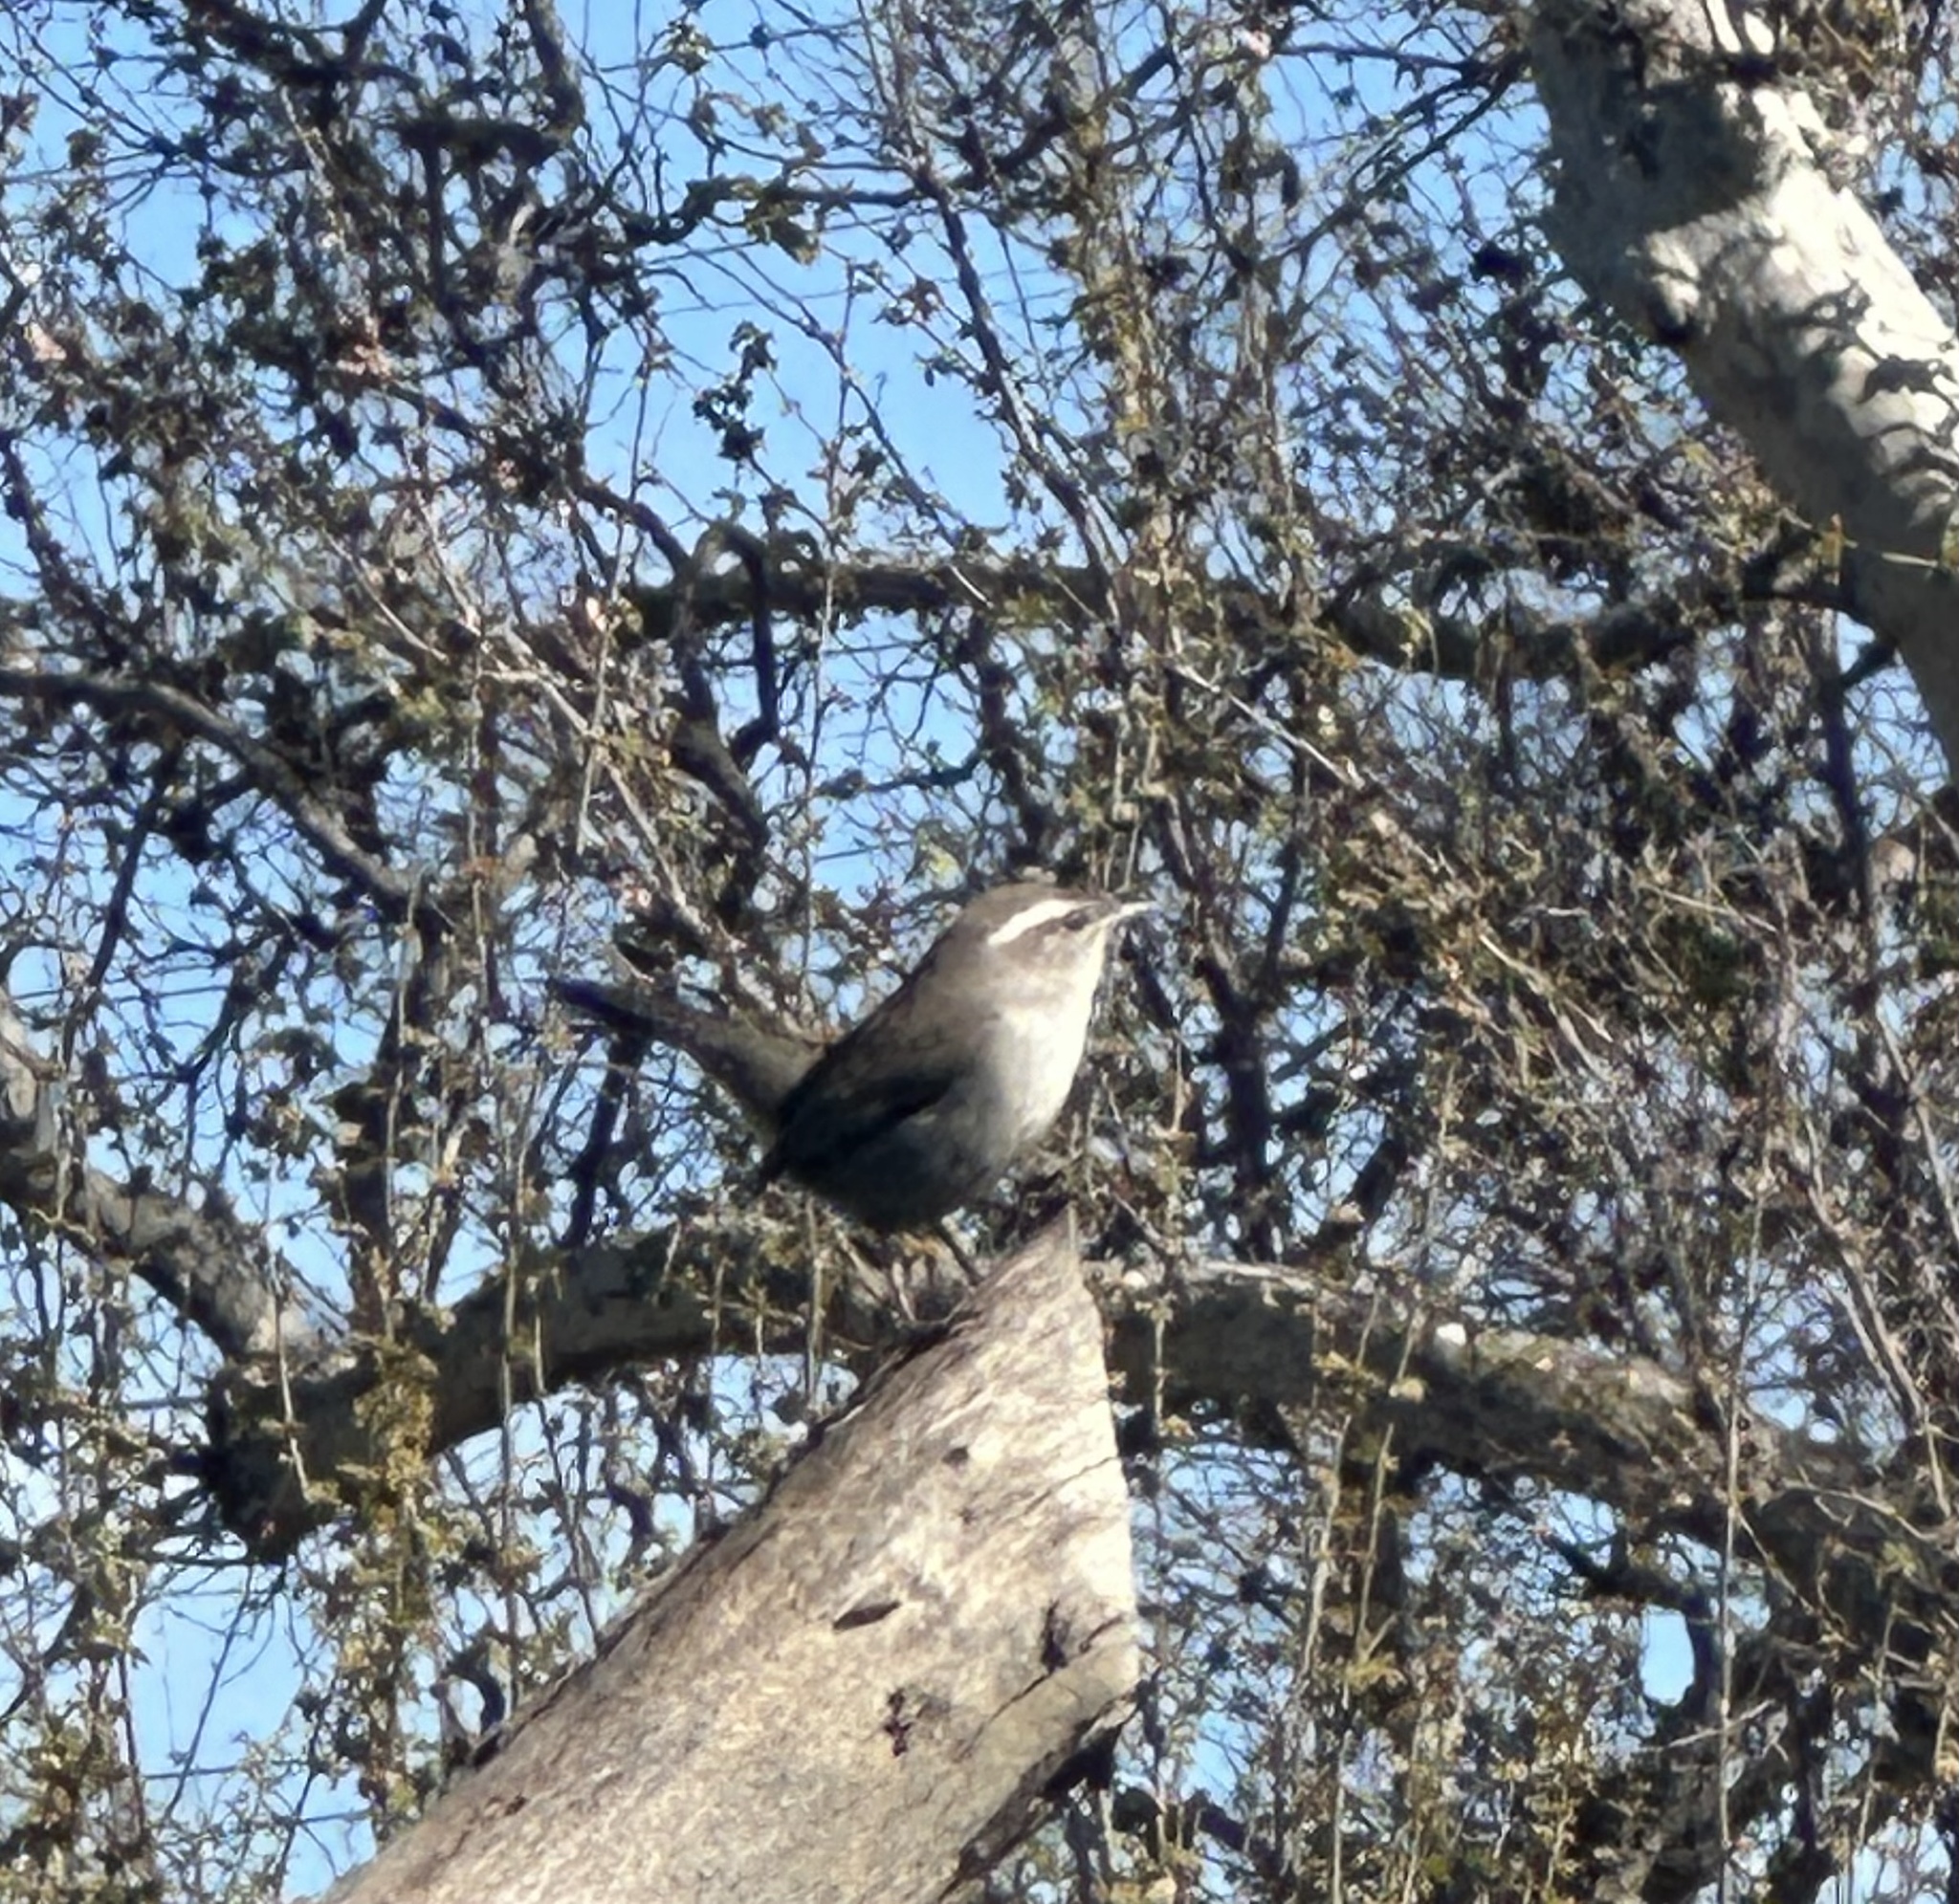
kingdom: Animalia
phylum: Chordata
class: Aves
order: Passeriformes
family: Troglodytidae
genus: Thryomanes
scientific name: Thryomanes bewickii
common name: Bewick's wren
